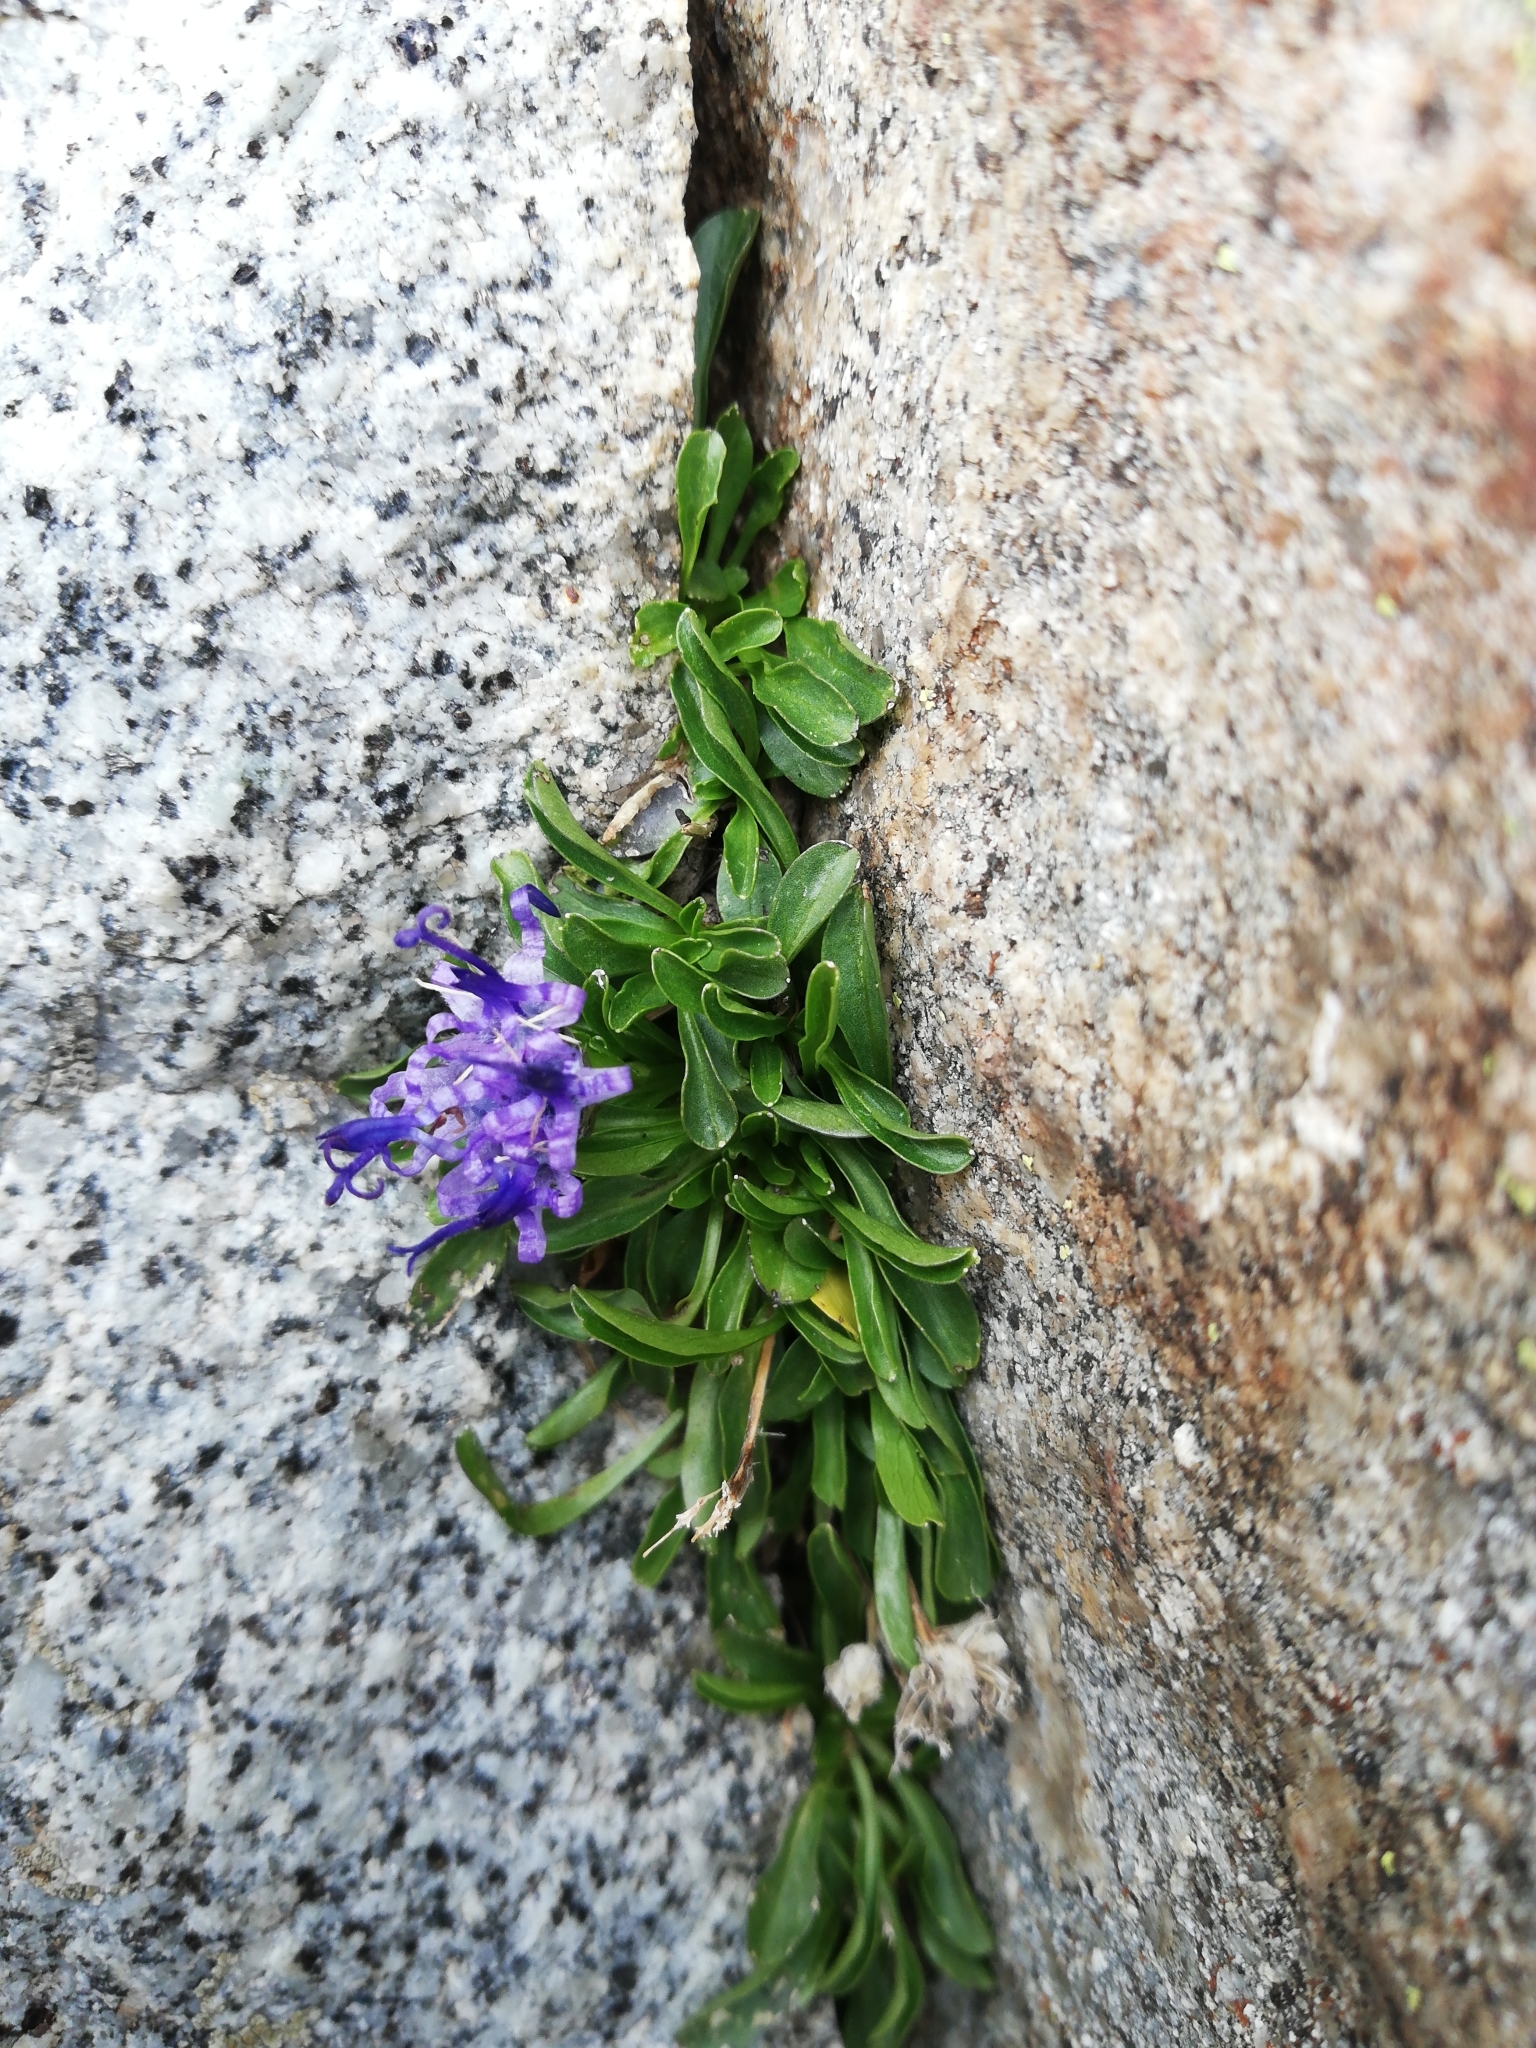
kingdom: Plantae
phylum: Tracheophyta
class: Magnoliopsida
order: Asterales
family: Campanulaceae
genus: Phyteuma
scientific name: Phyteuma globulariifolium
